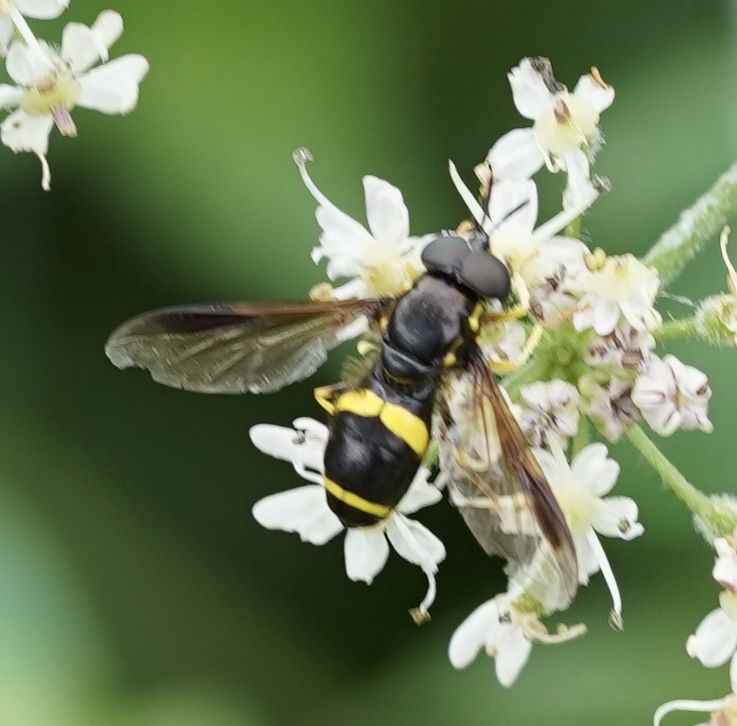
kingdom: Animalia
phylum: Arthropoda
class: Insecta
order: Diptera
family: Syrphidae
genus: Chrysotoxum
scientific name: Chrysotoxum bicincta
